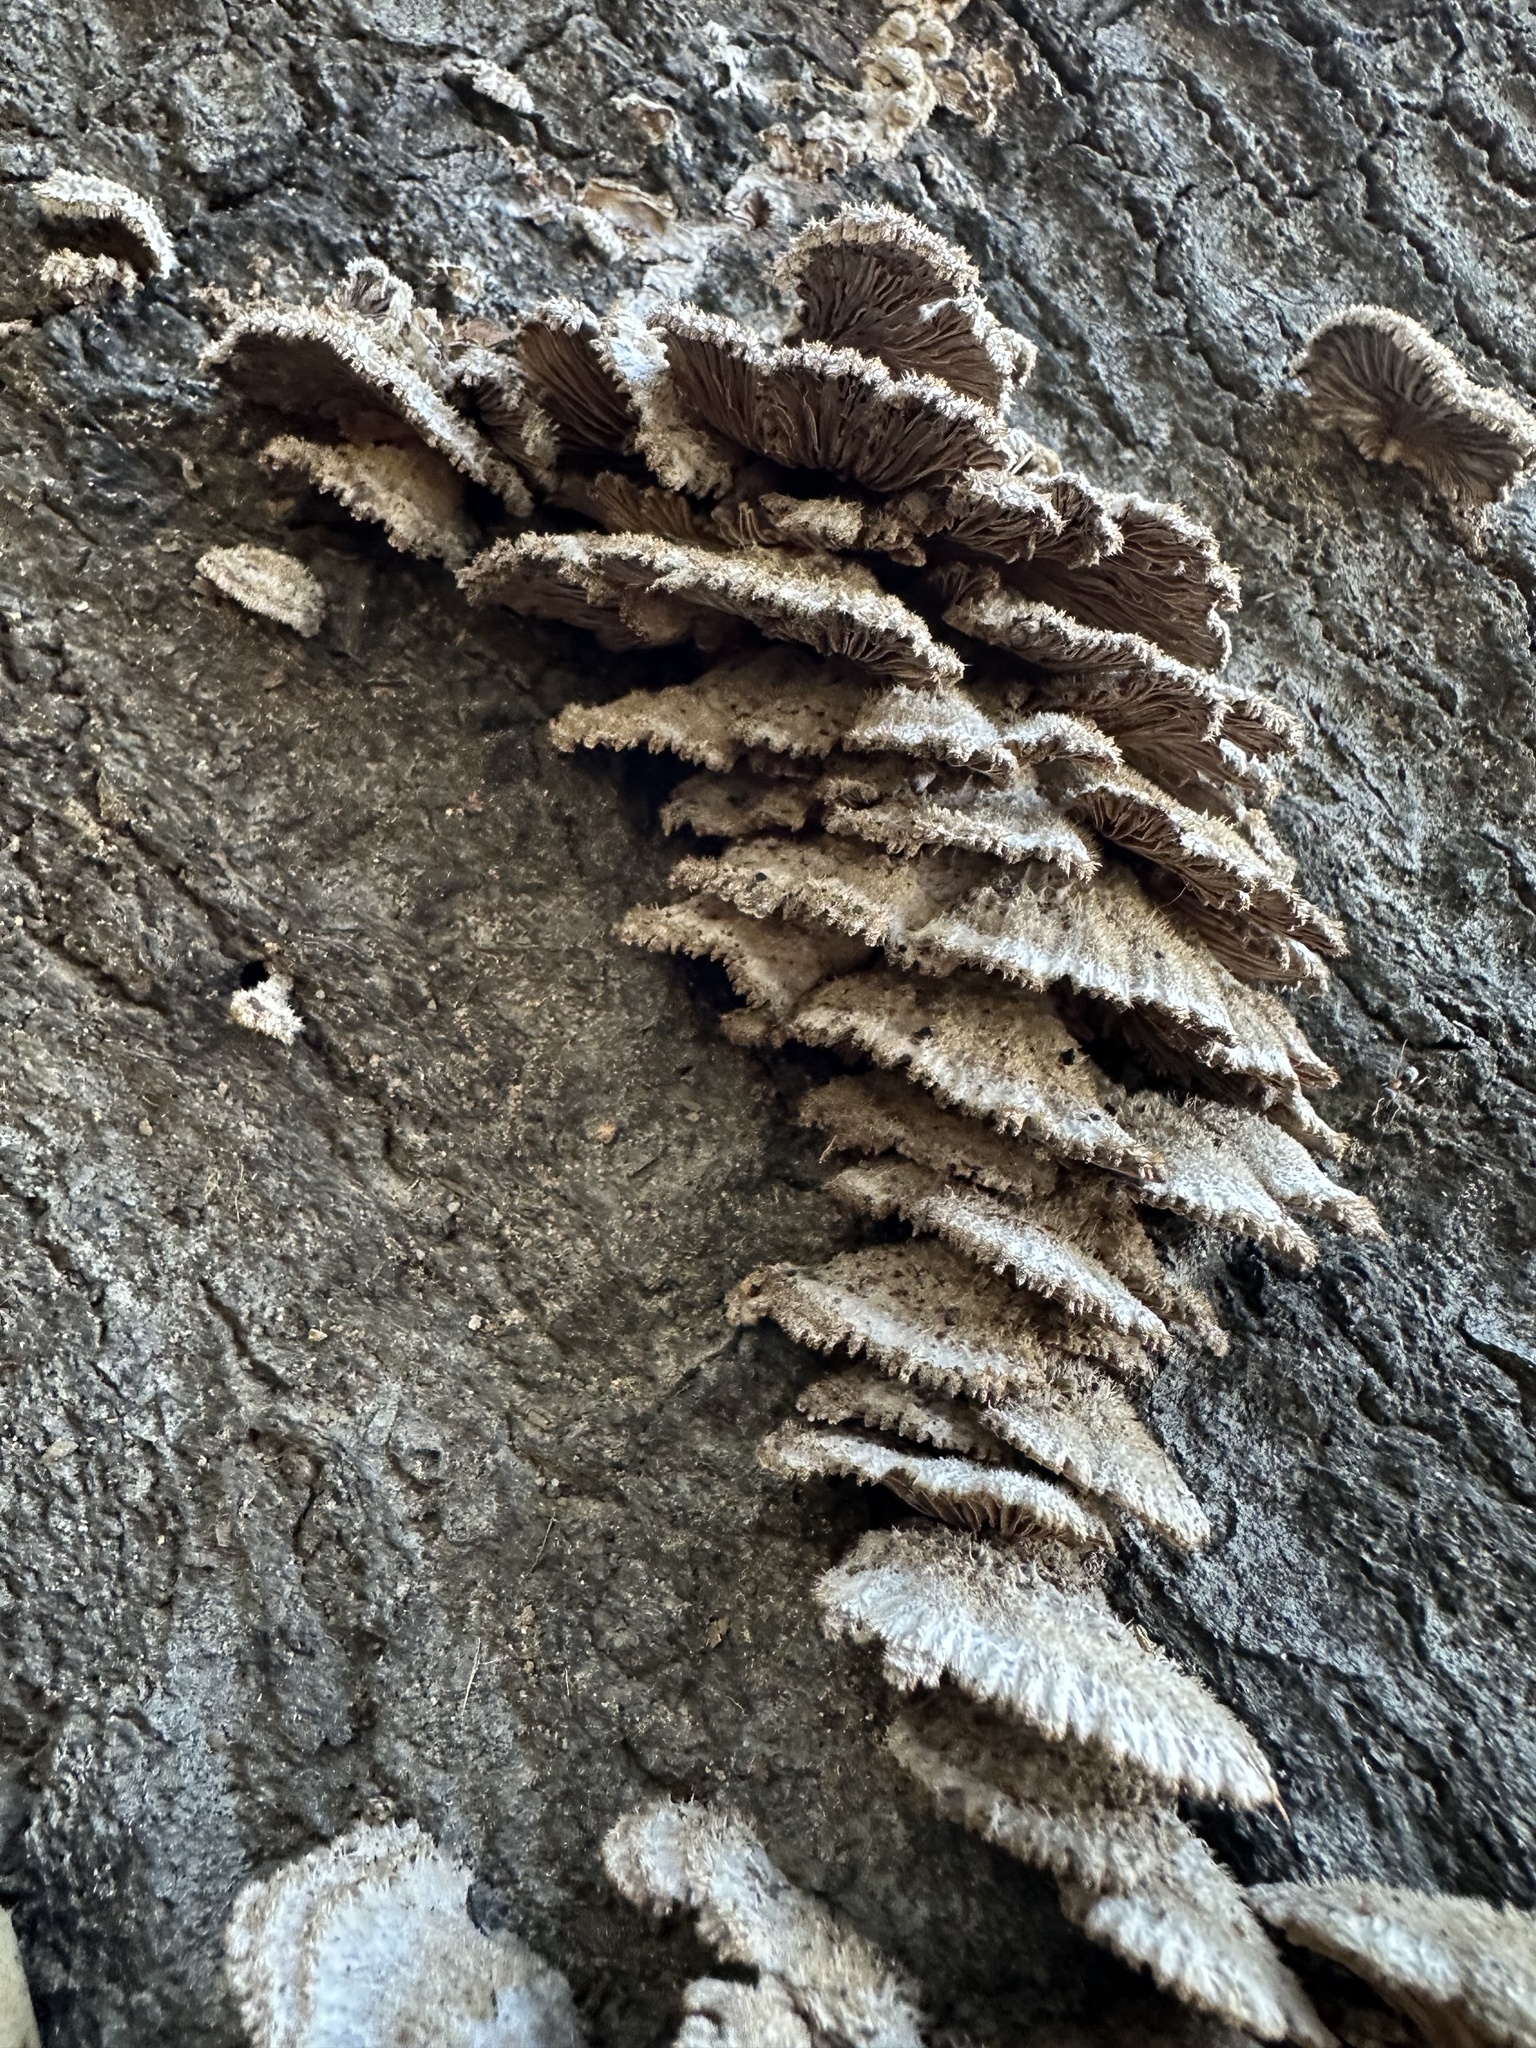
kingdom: Fungi
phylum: Basidiomycota
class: Agaricomycetes
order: Agaricales
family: Schizophyllaceae
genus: Schizophyllum
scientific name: Schizophyllum commune
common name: Common porecrust
